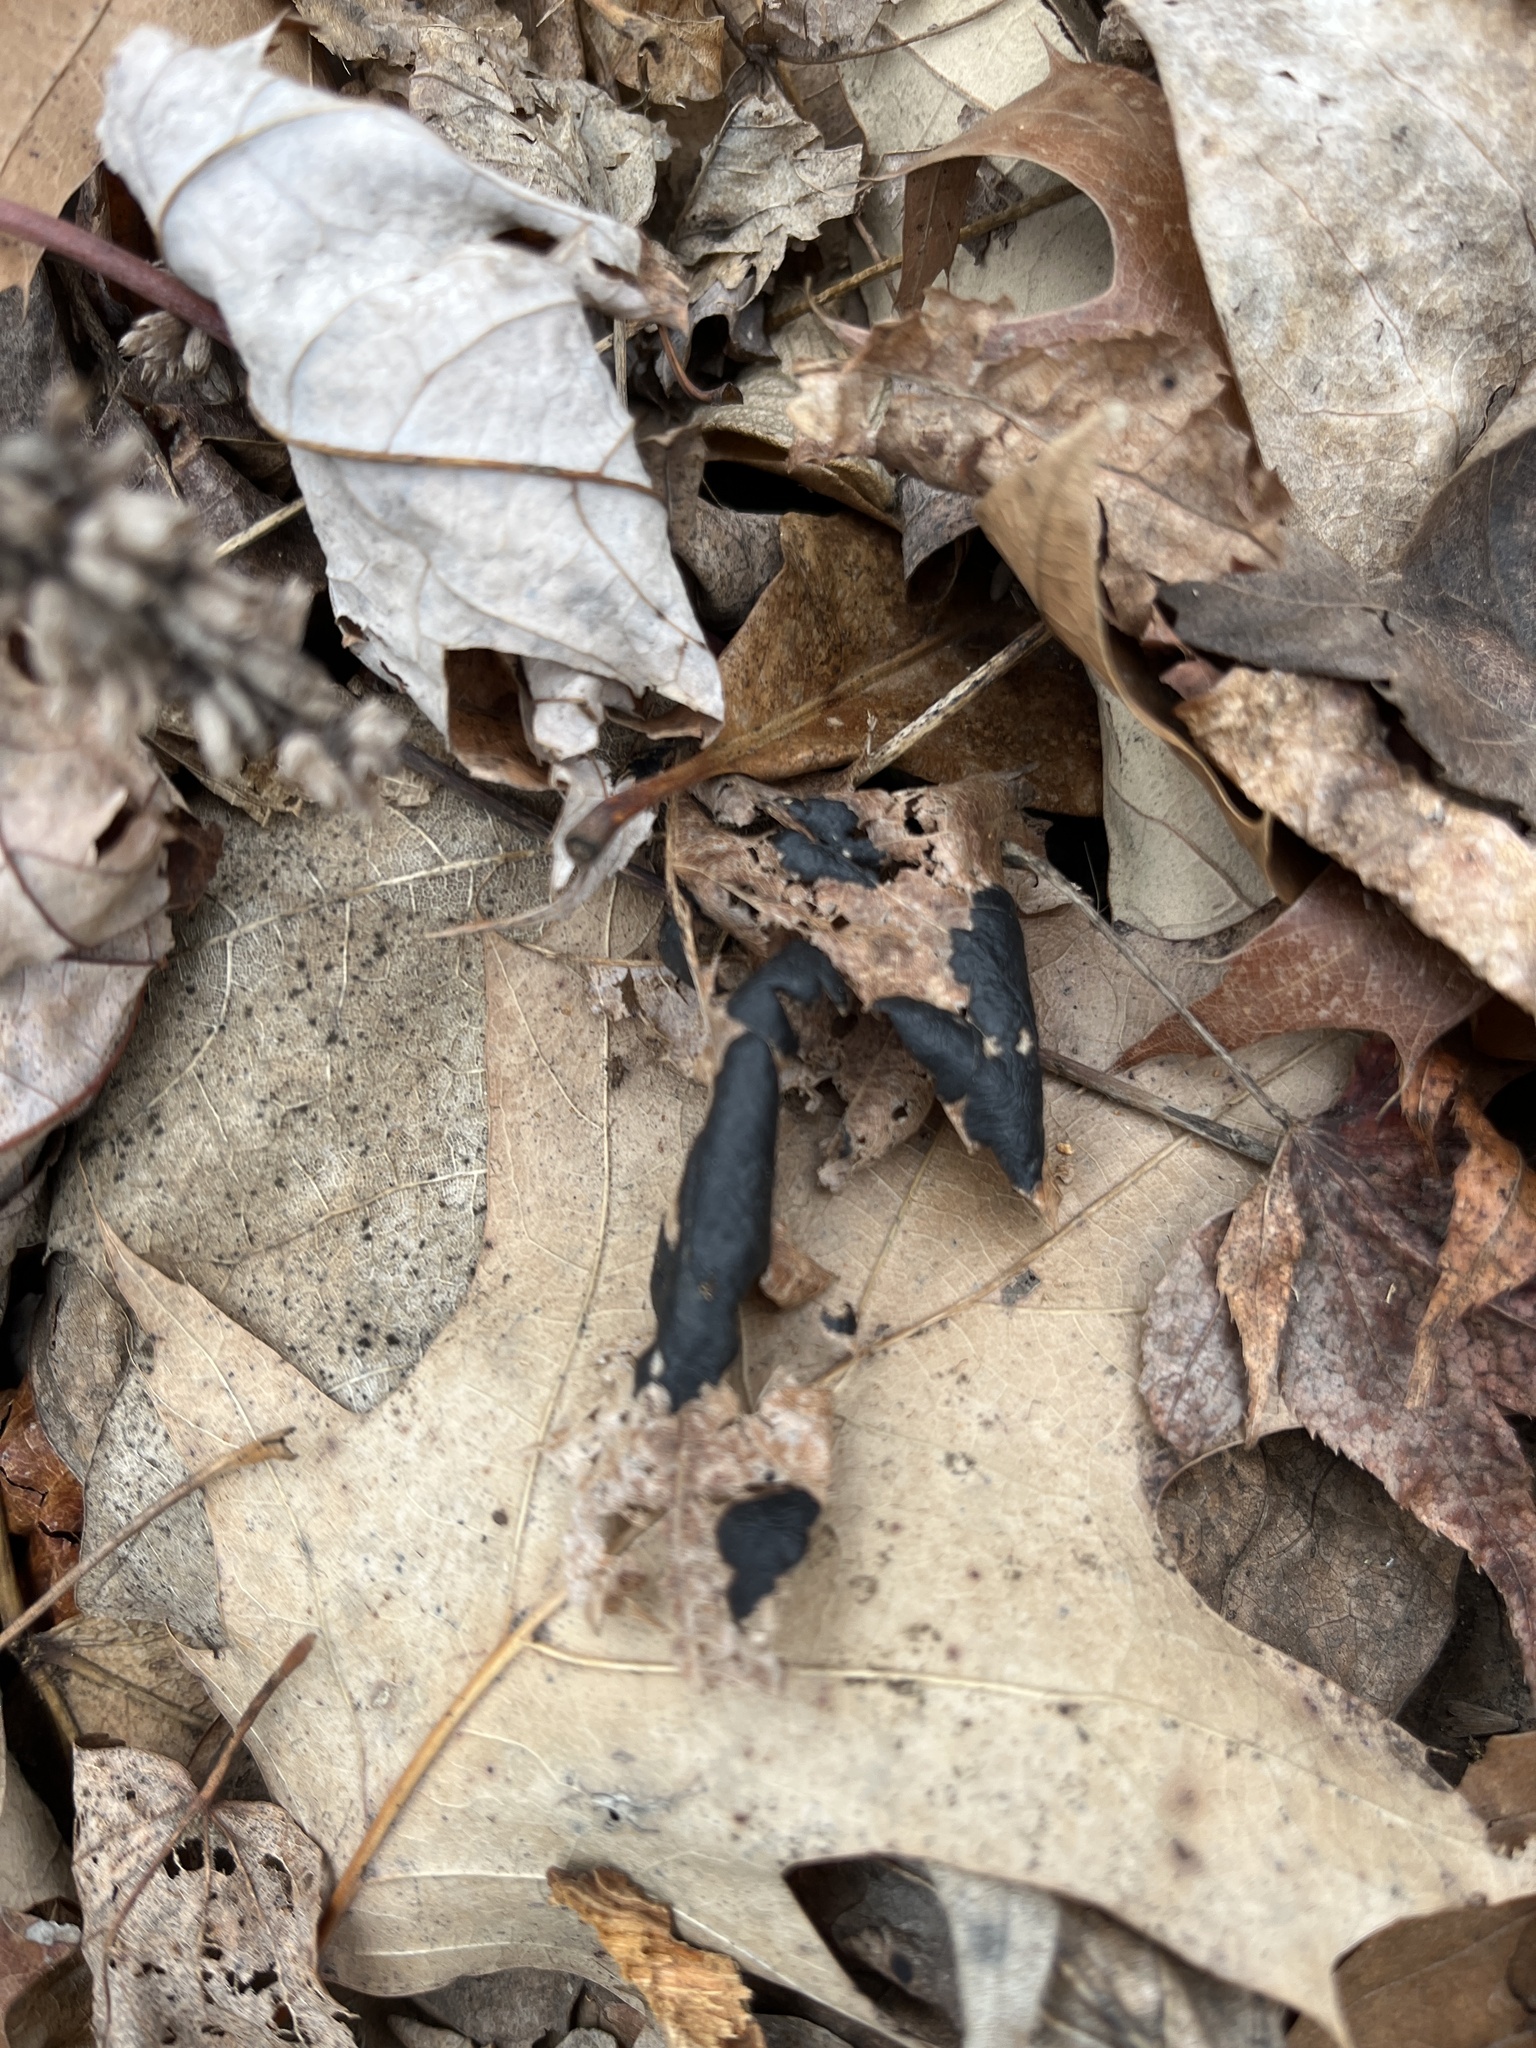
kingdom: Fungi
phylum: Ascomycota
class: Leotiomycetes
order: Rhytismatales
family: Rhytismataceae
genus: Rhytisma
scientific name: Rhytisma americanum
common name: American tar spot
